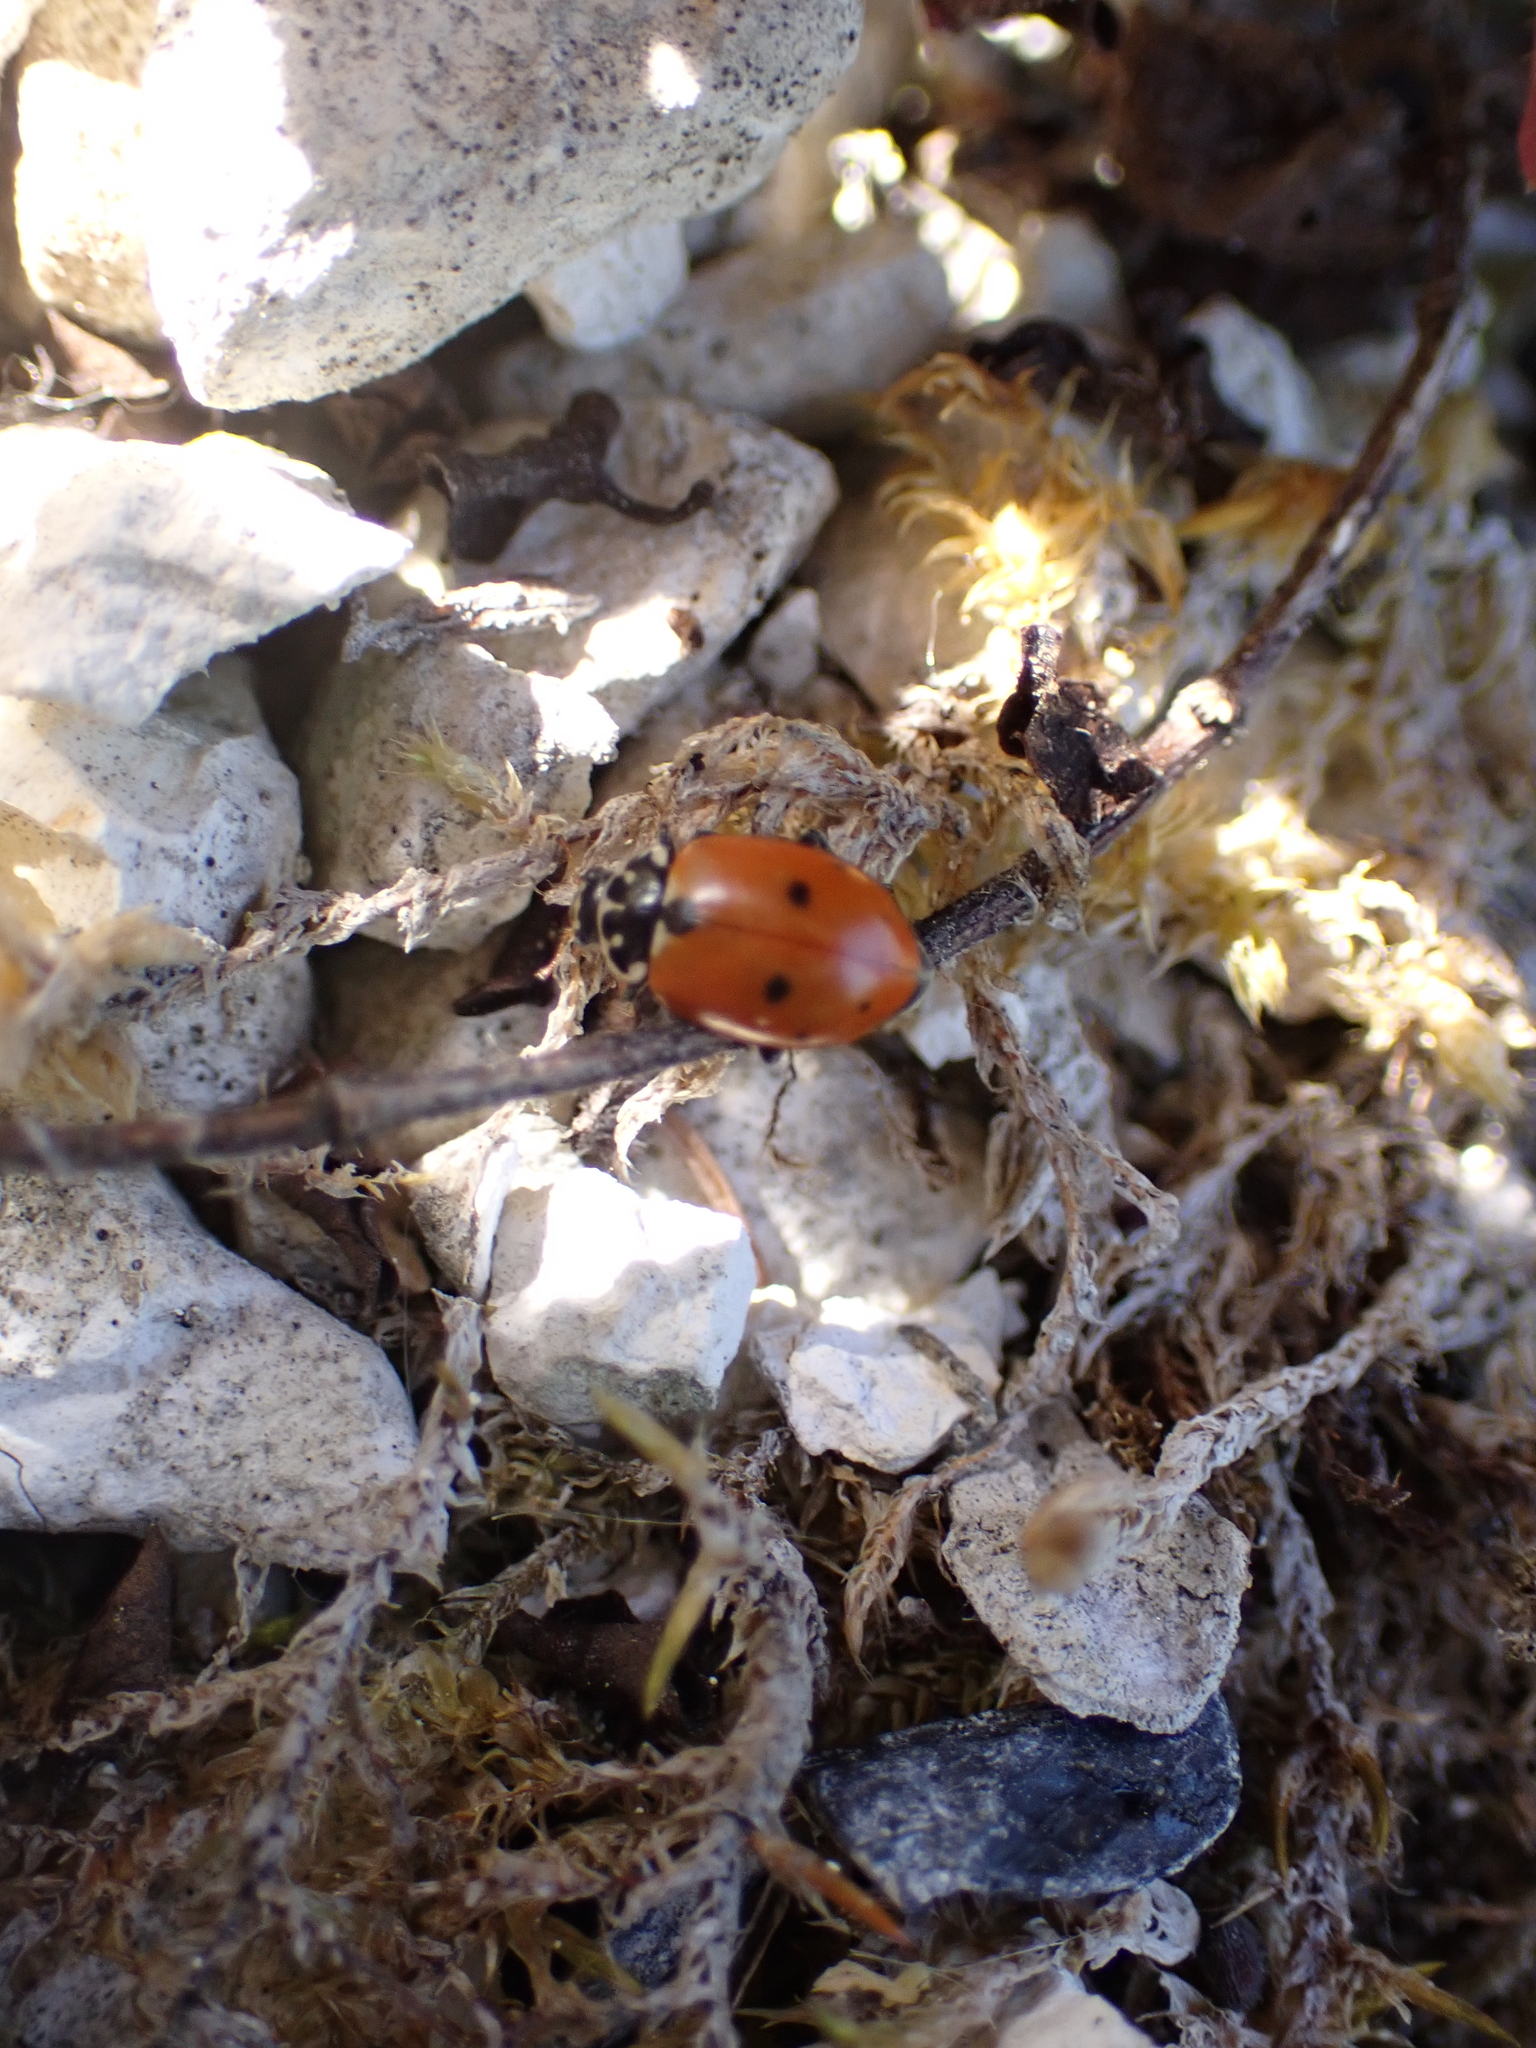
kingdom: Animalia
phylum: Arthropoda
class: Insecta
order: Coleoptera
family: Coccinellidae
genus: Hippodamia
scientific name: Hippodamia variegata
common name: Ladybird beetle
